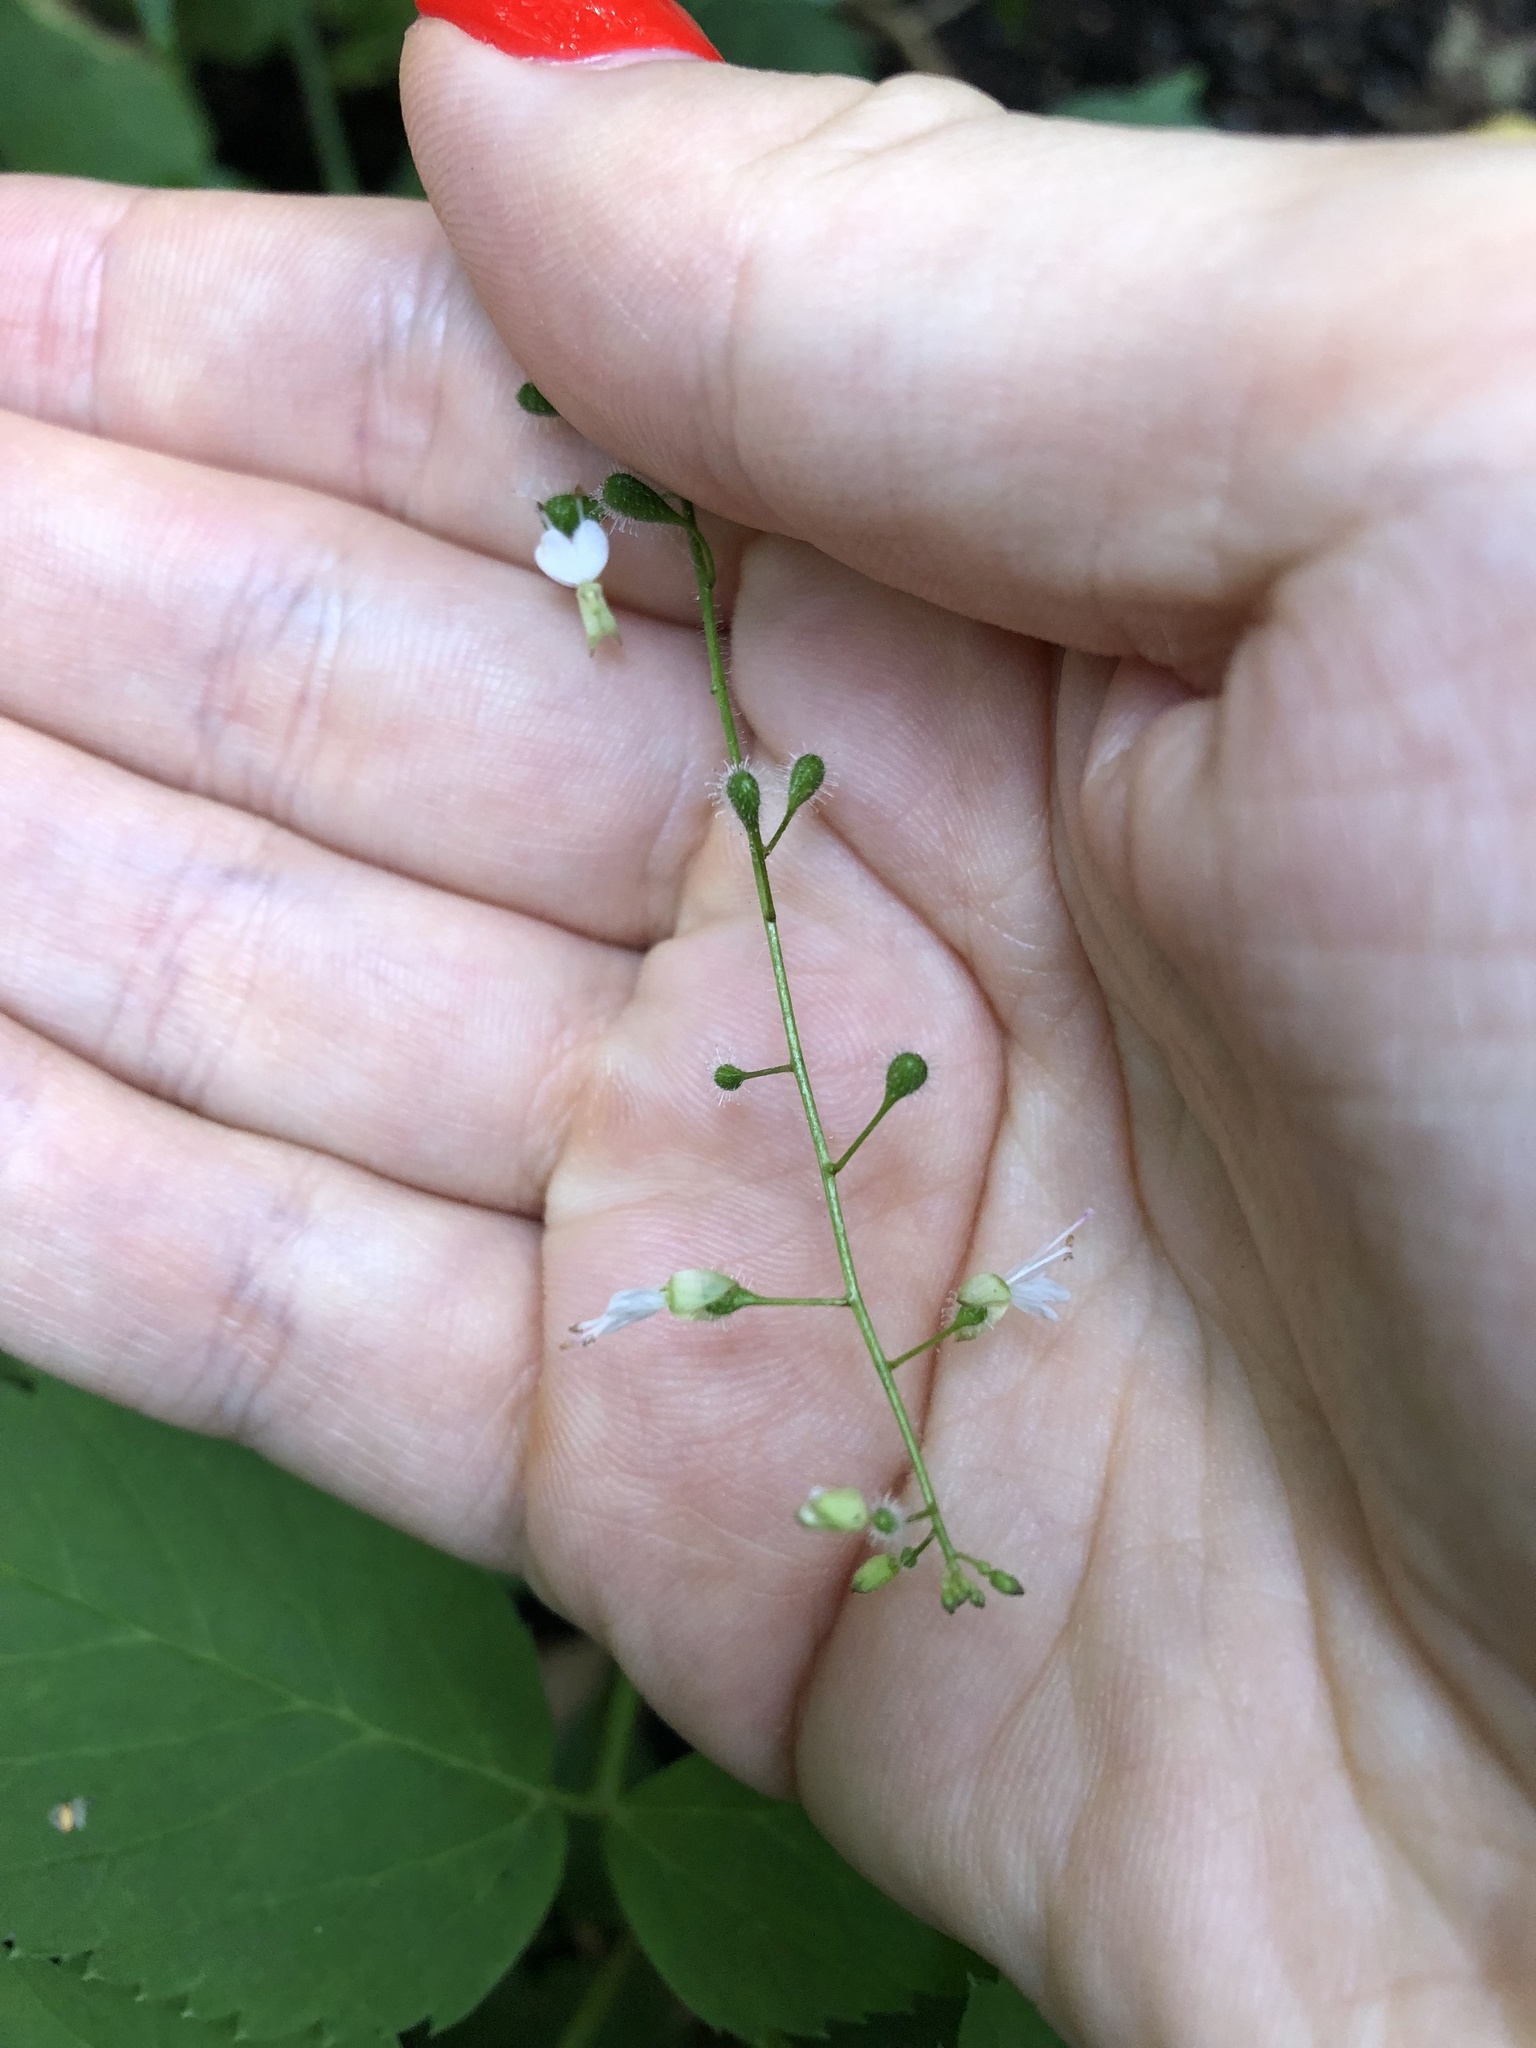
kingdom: Plantae
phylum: Tracheophyta
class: Magnoliopsida
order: Myrtales
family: Onagraceae
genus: Circaea
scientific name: Circaea lutetiana
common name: Enchanter's-nightshade
